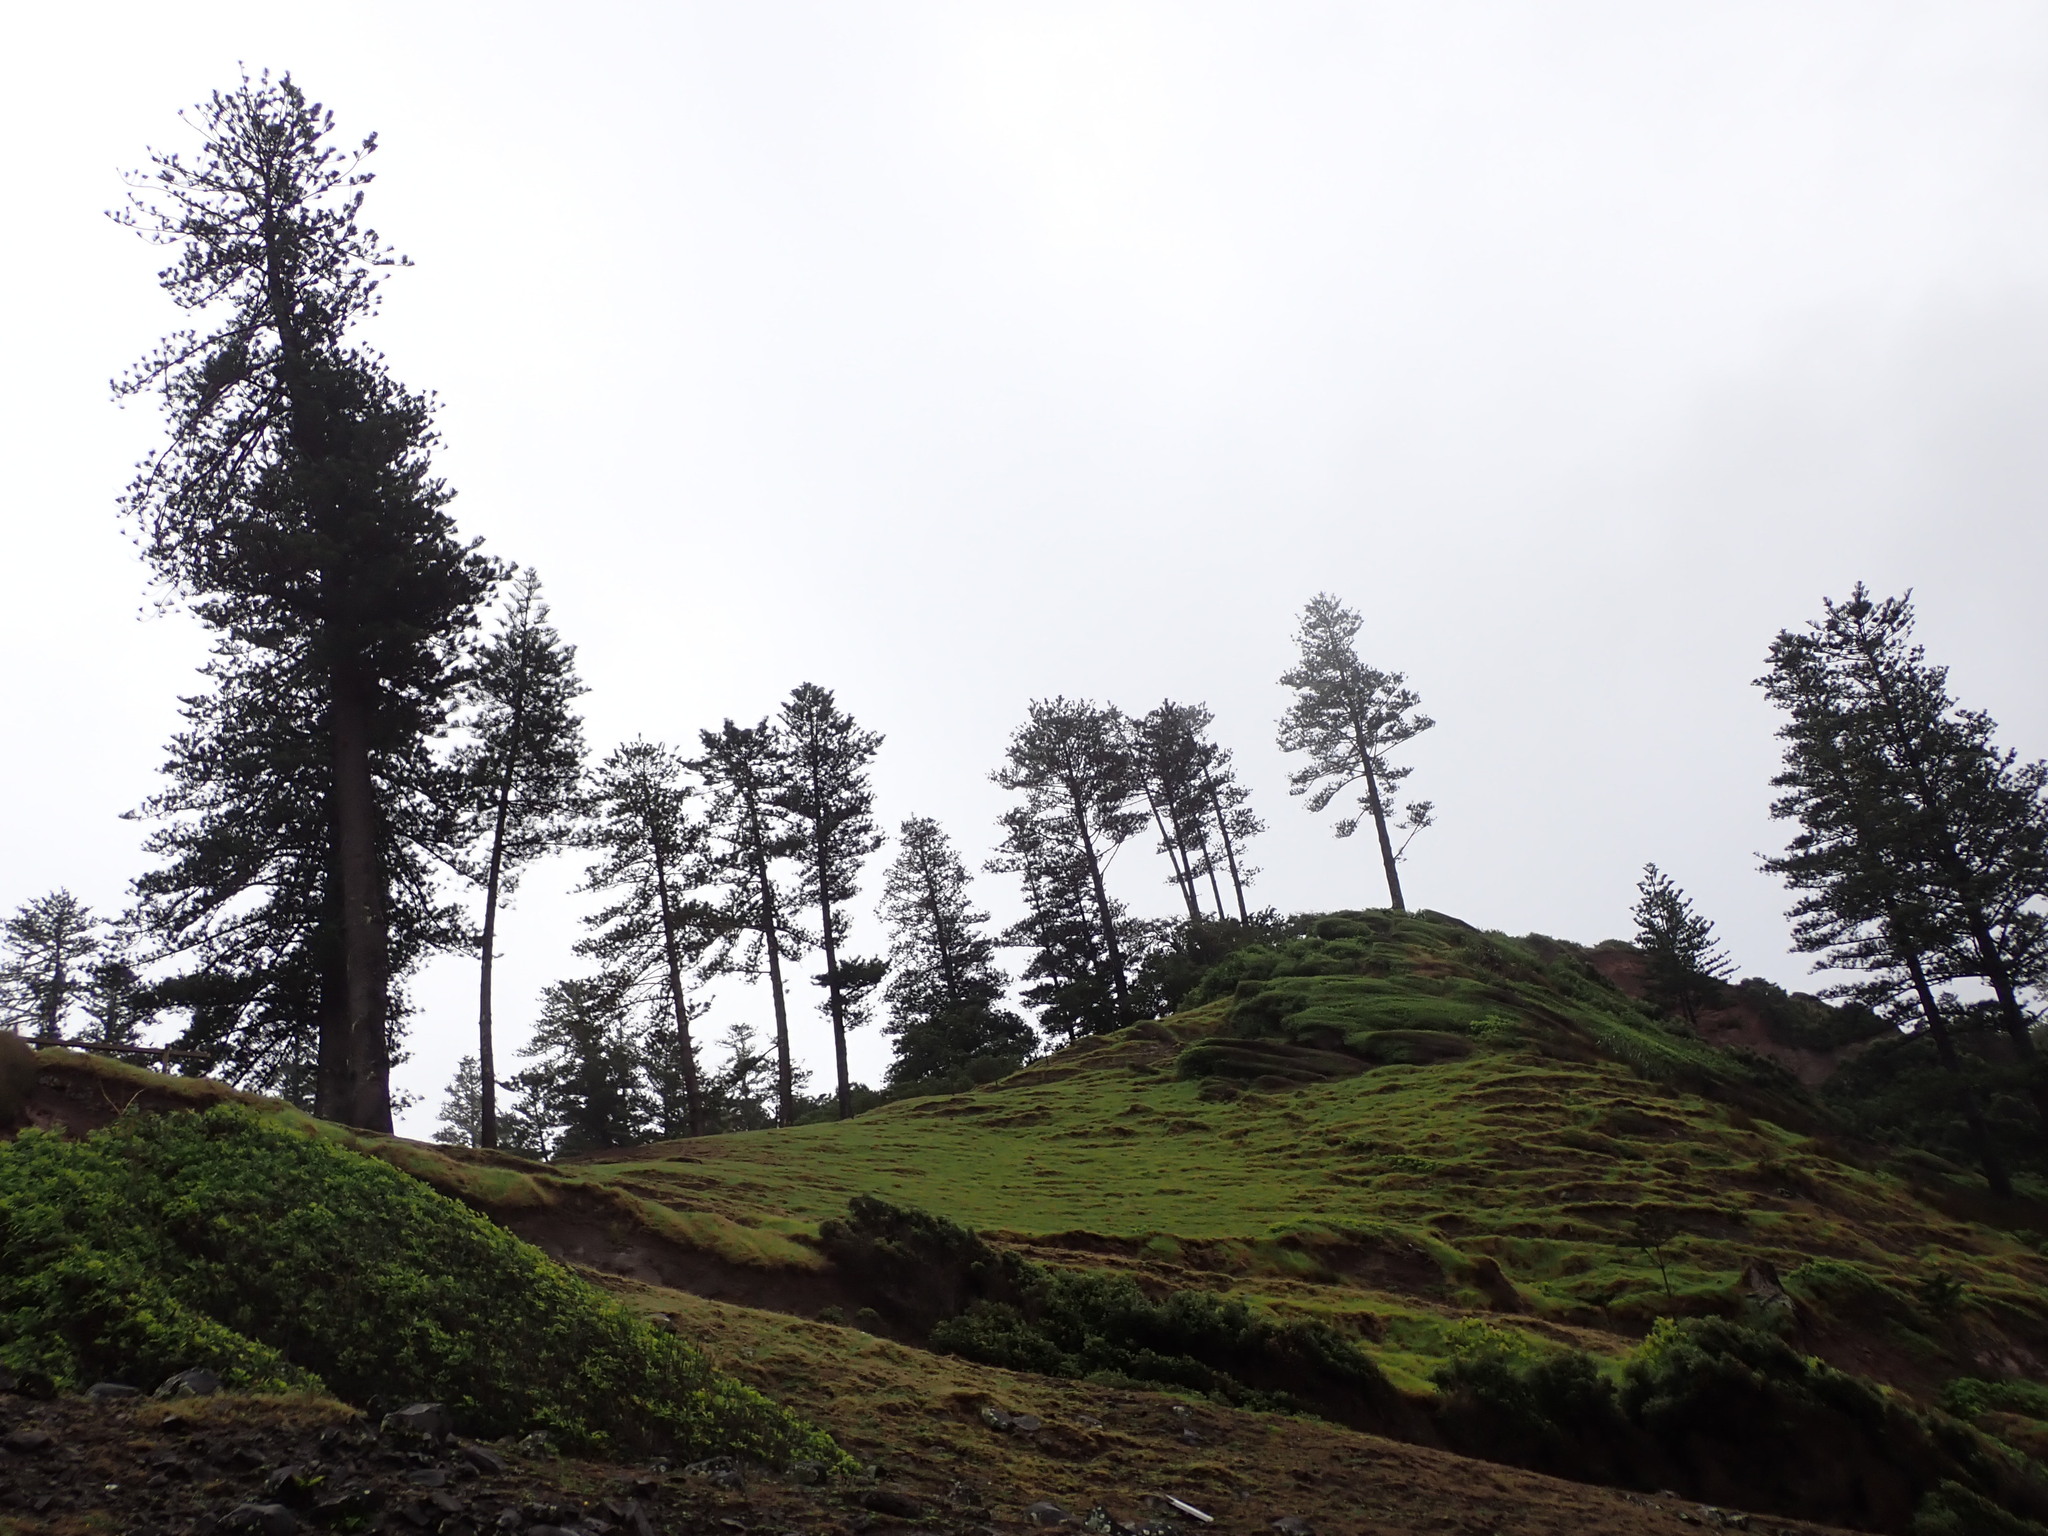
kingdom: Plantae
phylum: Tracheophyta
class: Pinopsida
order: Pinales
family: Araucariaceae
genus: Araucaria
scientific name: Araucaria heterophylla
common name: Norfolk island pine
